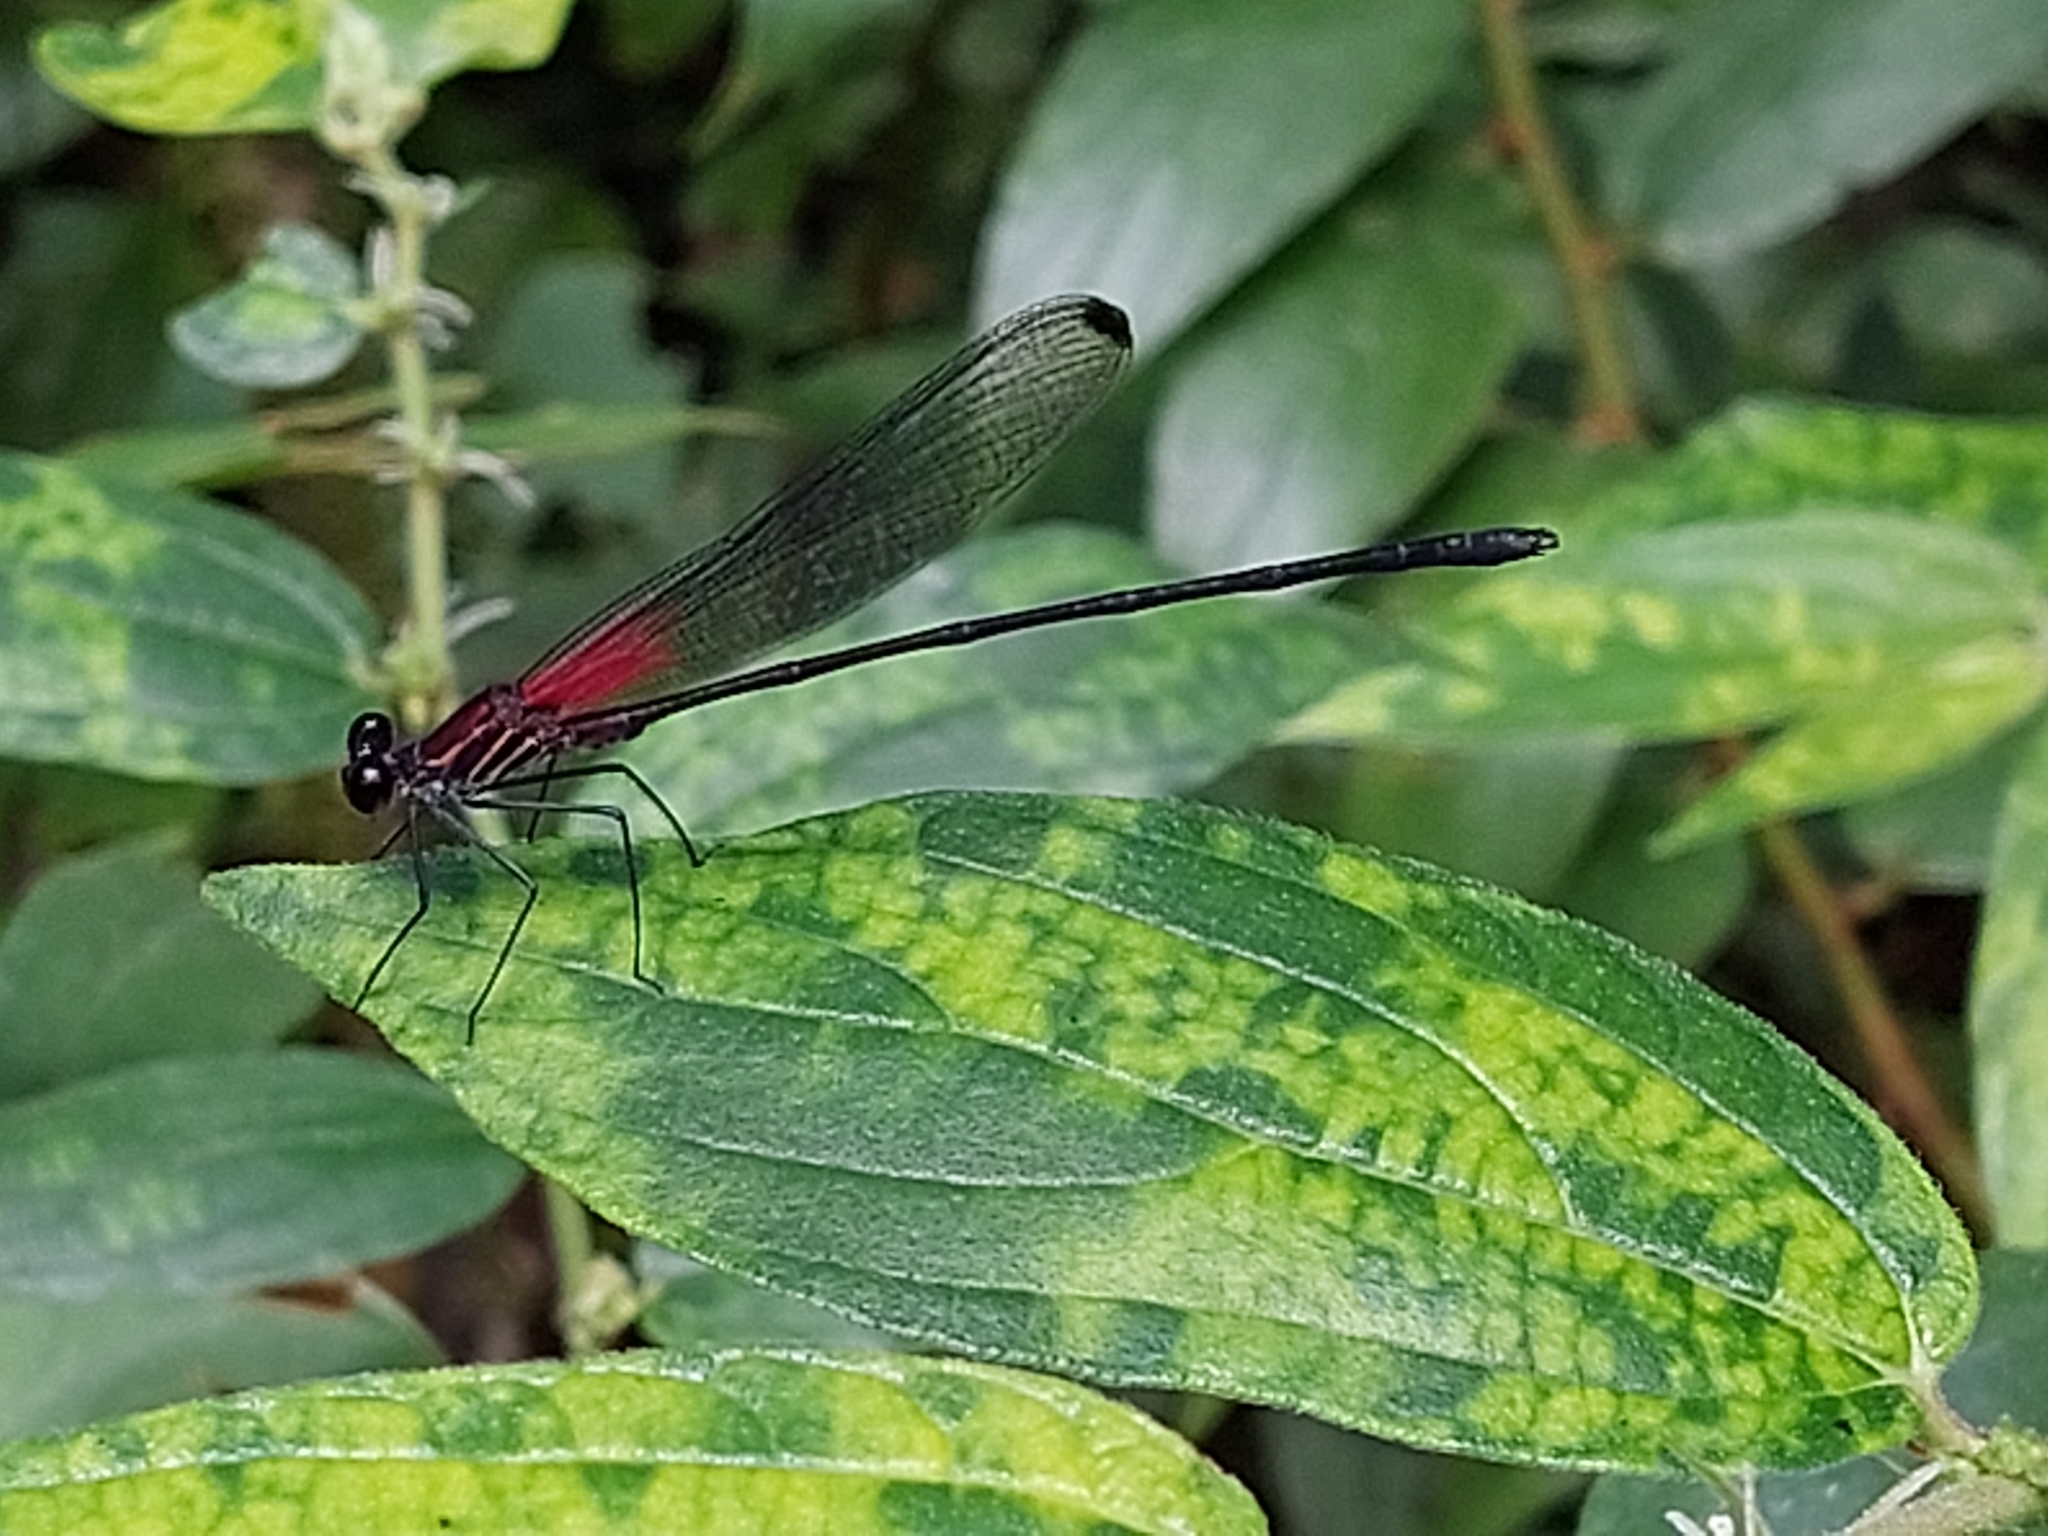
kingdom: Animalia
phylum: Arthropoda
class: Insecta
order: Odonata
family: Calopterygidae
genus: Hetaerina
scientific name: Hetaerina fuscoguttata
